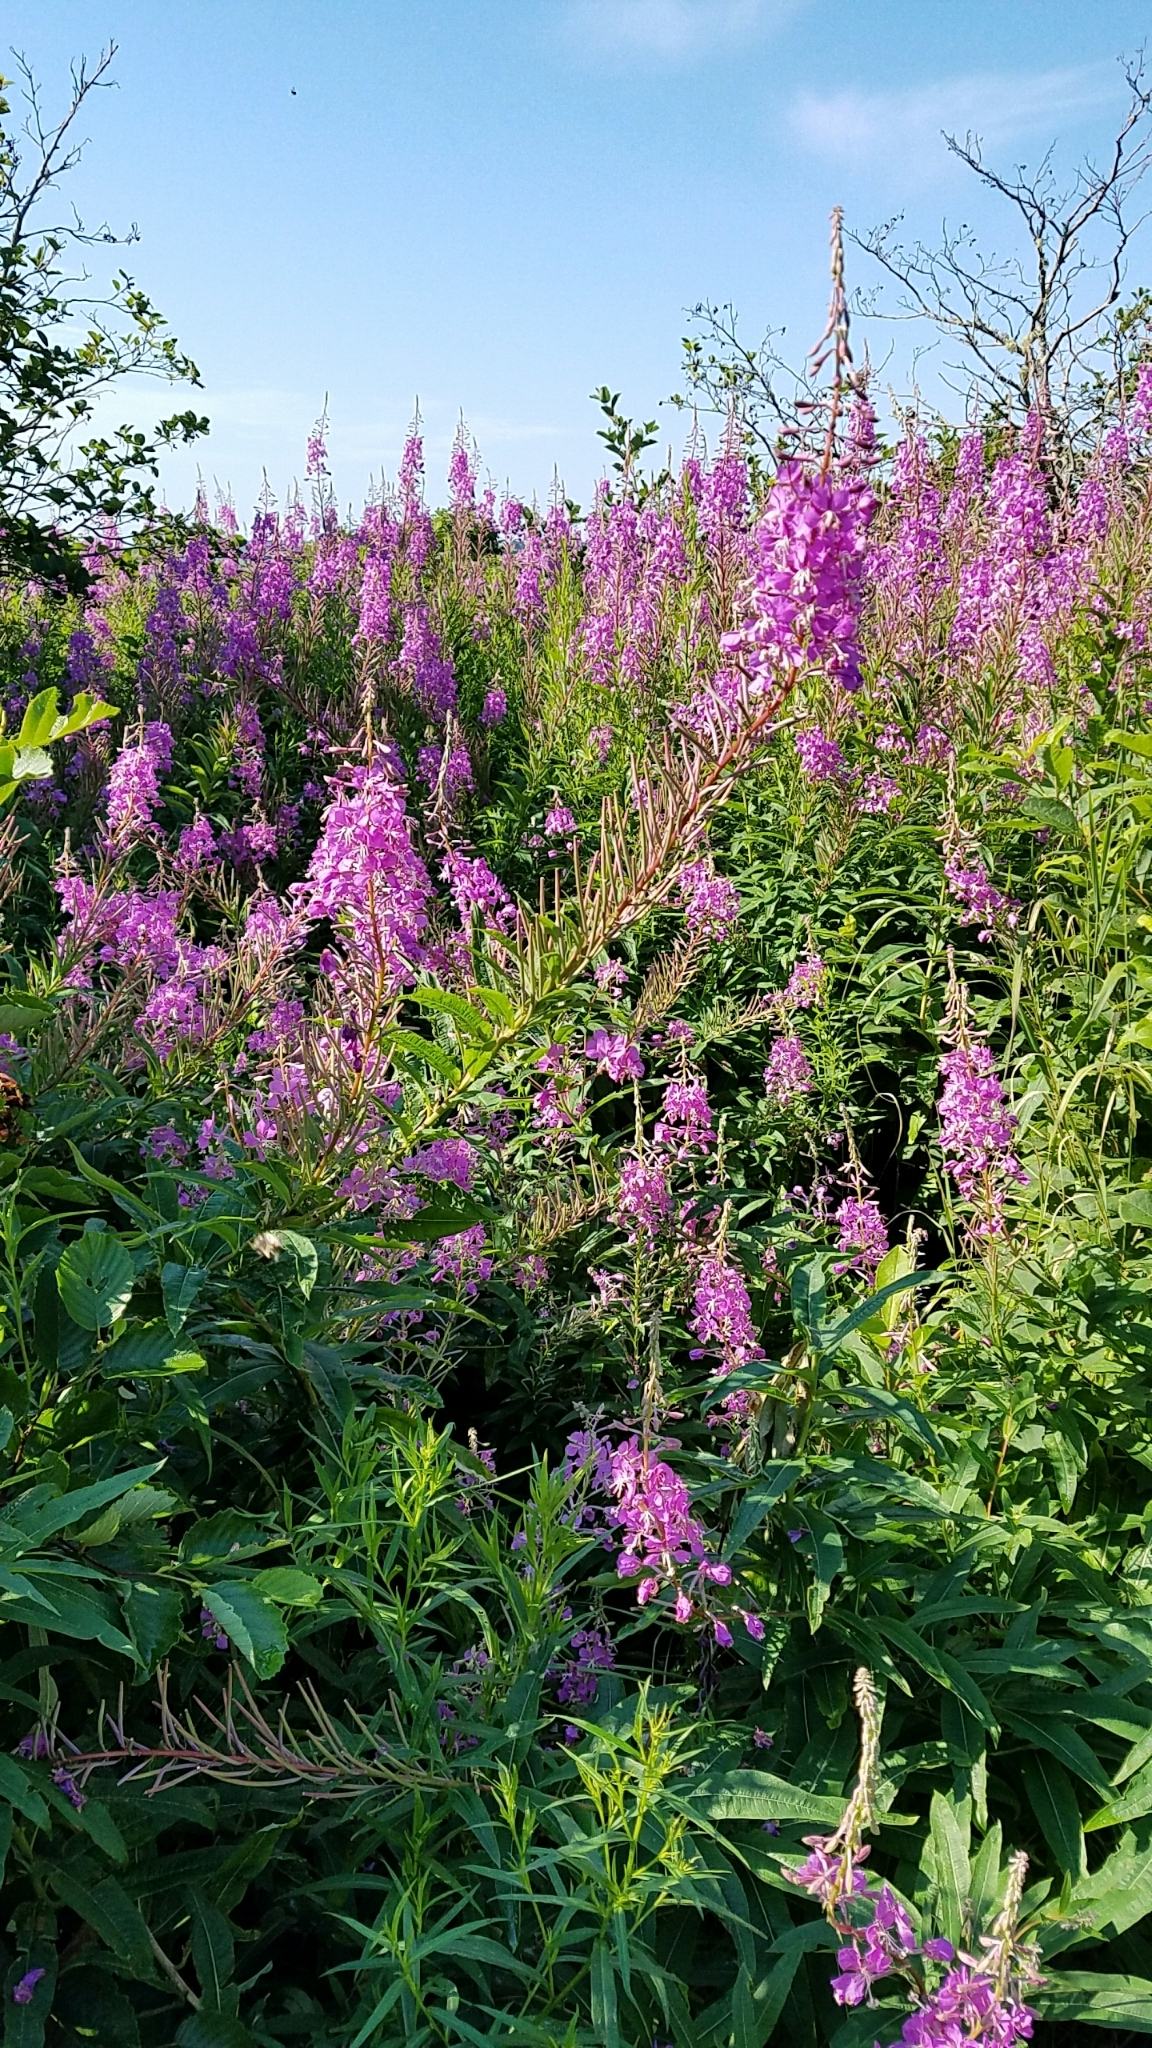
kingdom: Plantae
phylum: Tracheophyta
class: Magnoliopsida
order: Myrtales
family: Onagraceae
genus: Chamaenerion
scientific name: Chamaenerion angustifolium
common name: Fireweed
